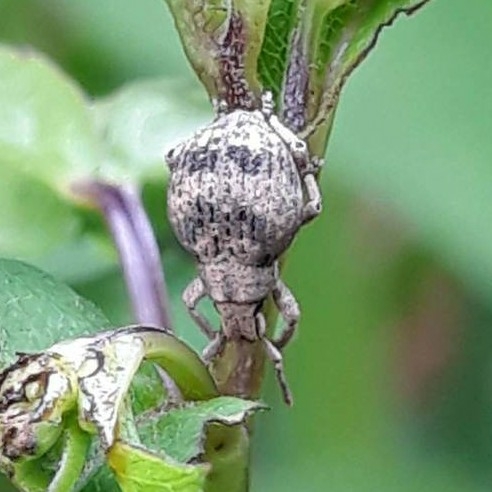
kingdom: Animalia
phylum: Arthropoda
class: Insecta
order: Coleoptera
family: Curculionidae
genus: Pseudocneorhinus
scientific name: Pseudocneorhinus bifasciatus
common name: Two-banded japanese weevil
